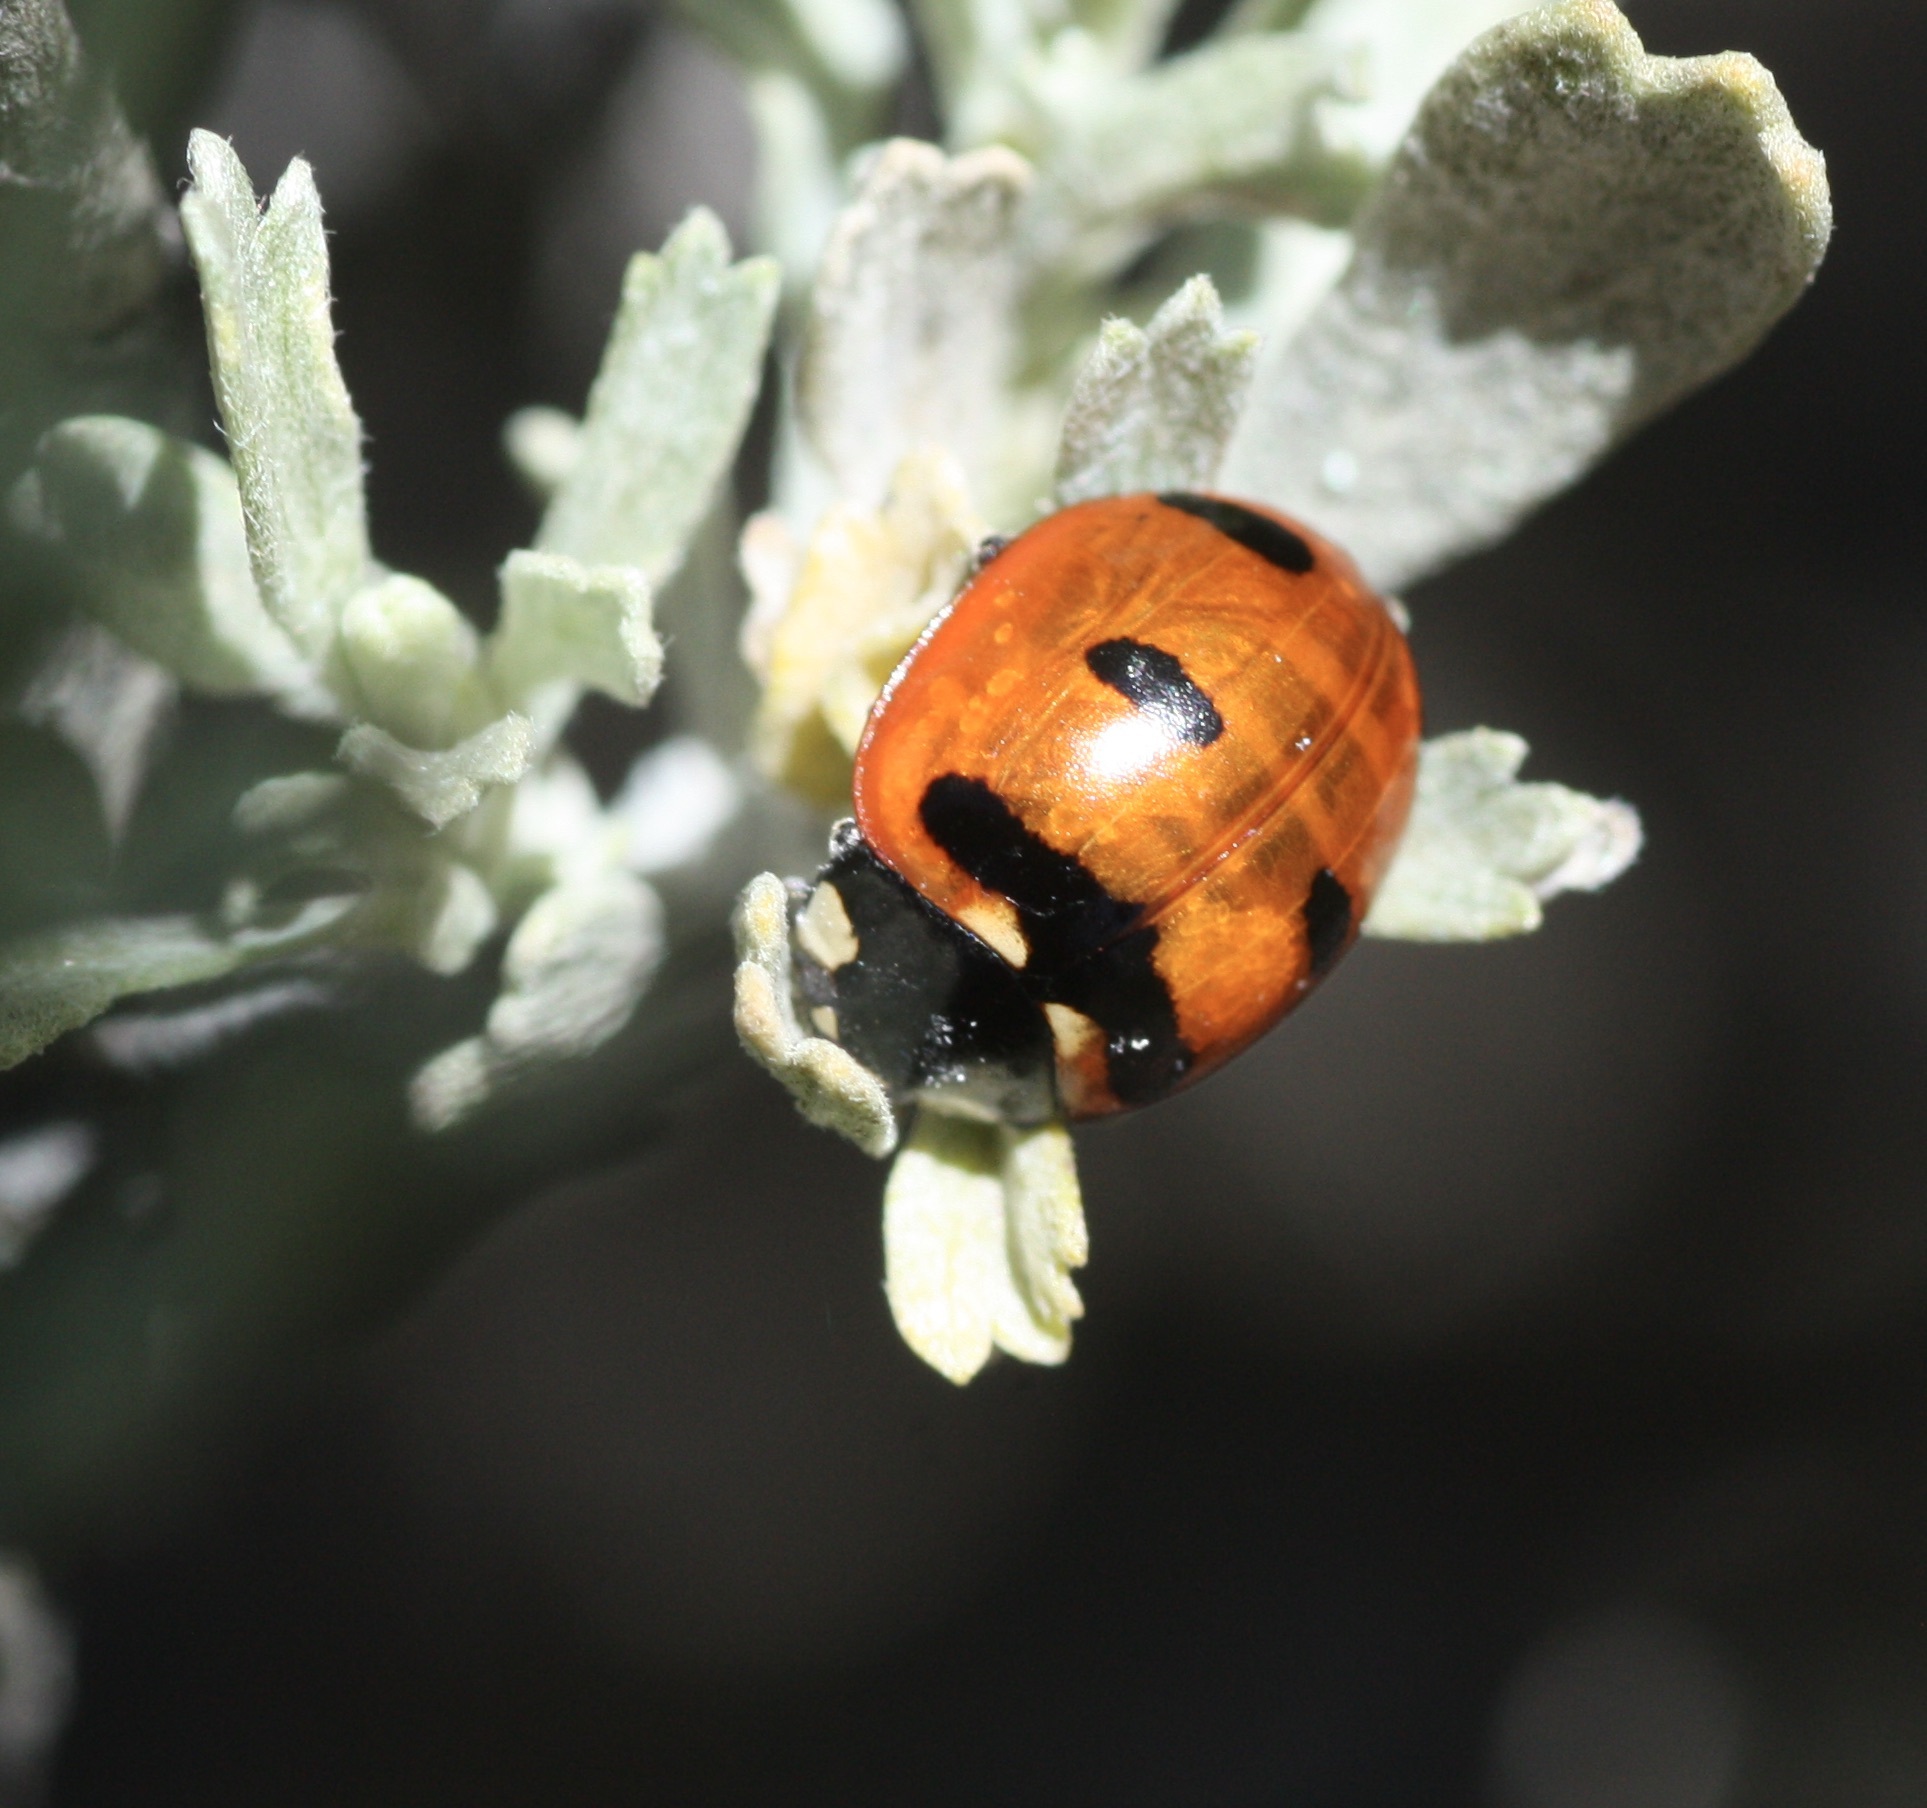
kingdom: Animalia
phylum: Arthropoda
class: Insecta
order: Coleoptera
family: Coccinellidae
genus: Coccinella
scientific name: Coccinella transversoguttata
